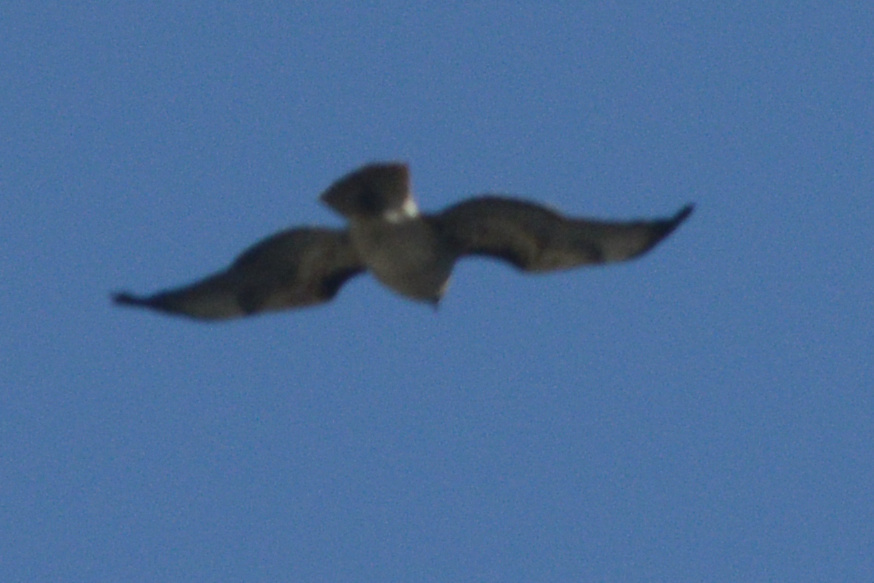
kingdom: Animalia
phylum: Chordata
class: Aves
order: Accipitriformes
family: Accipitridae
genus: Buteo
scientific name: Buteo jamaicensis
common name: Red-tailed hawk
